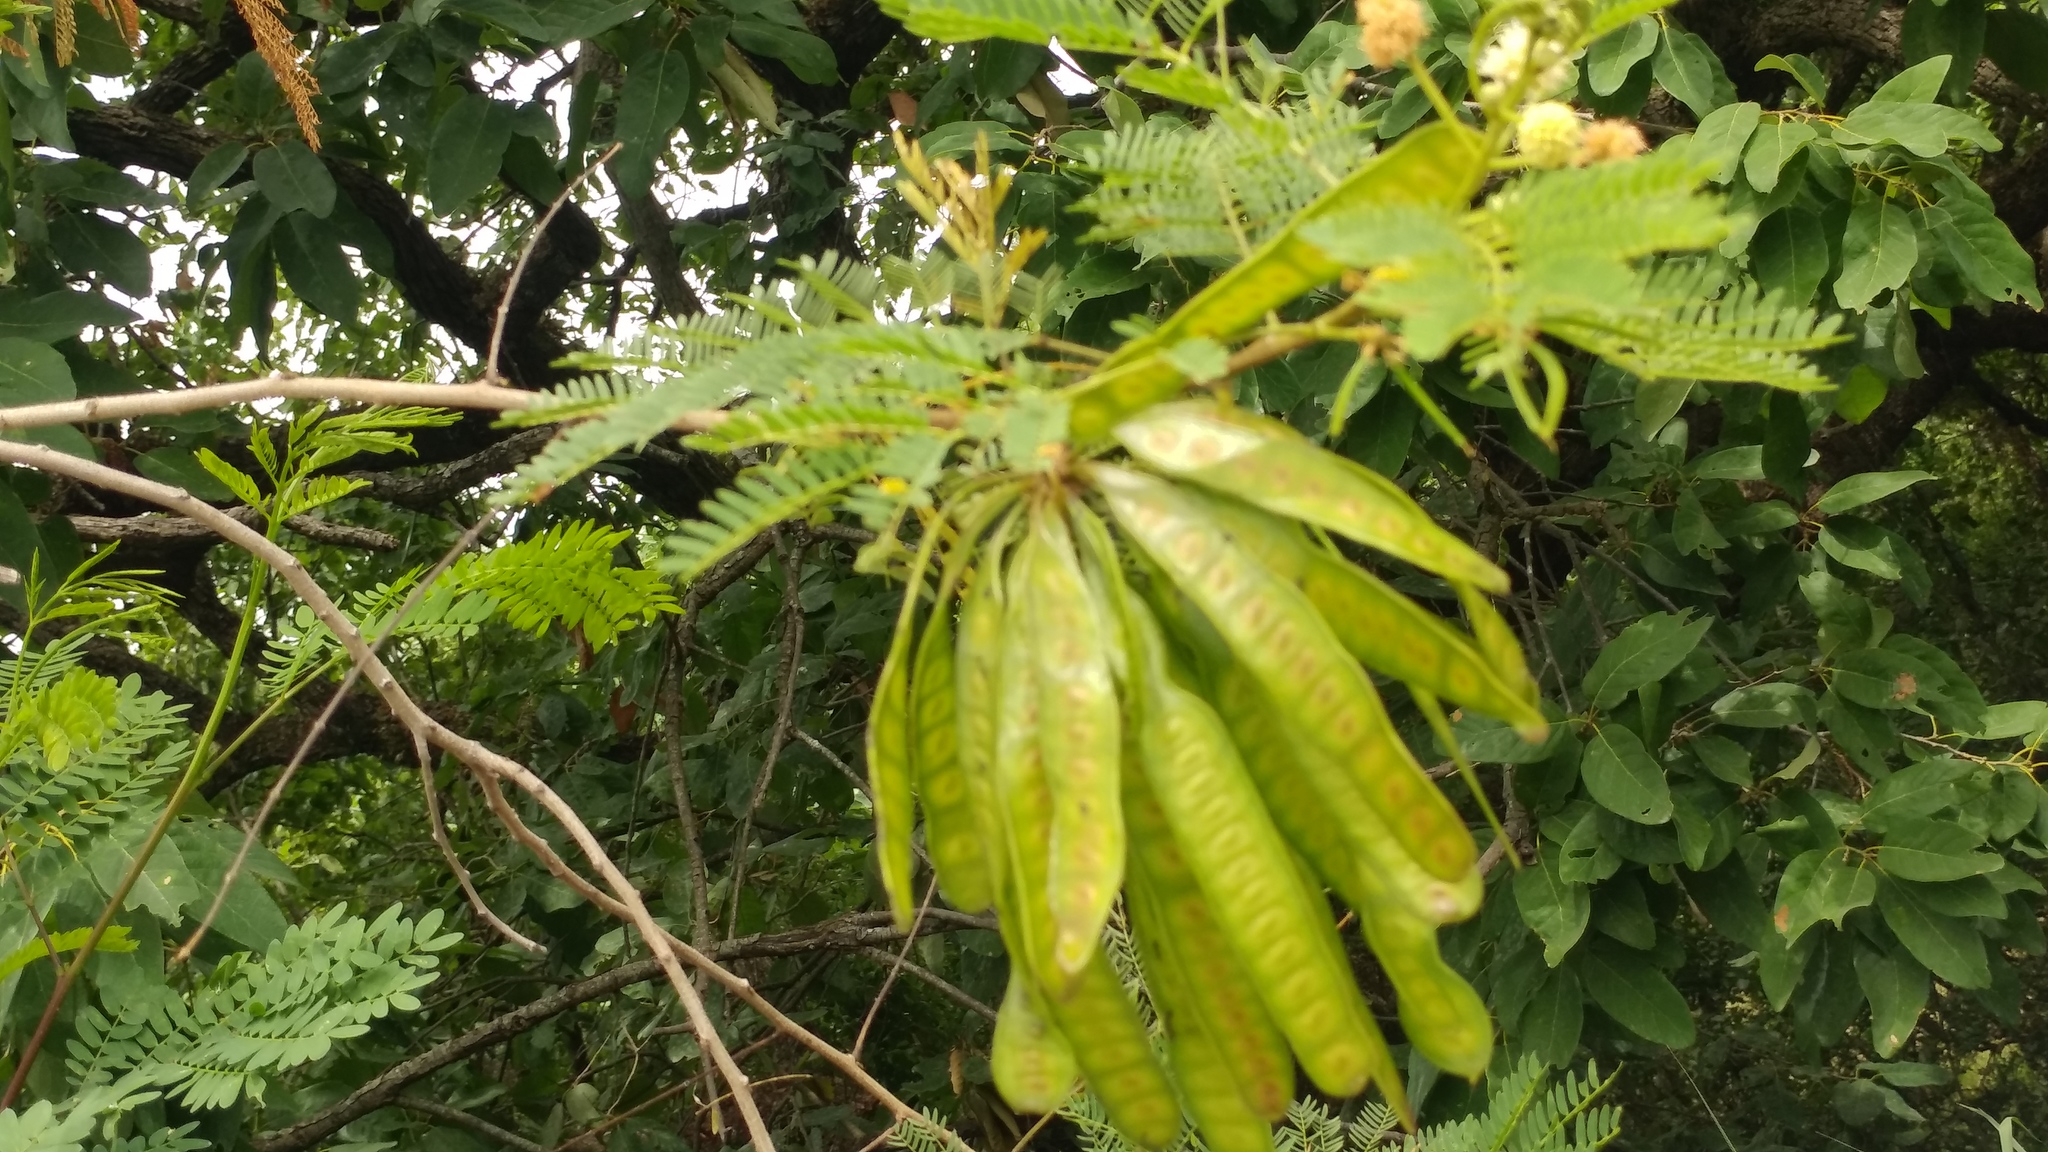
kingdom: Plantae
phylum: Tracheophyta
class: Magnoliopsida
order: Fabales
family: Fabaceae
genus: Leucaena
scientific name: Leucaena leucocephala
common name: White leadtree
